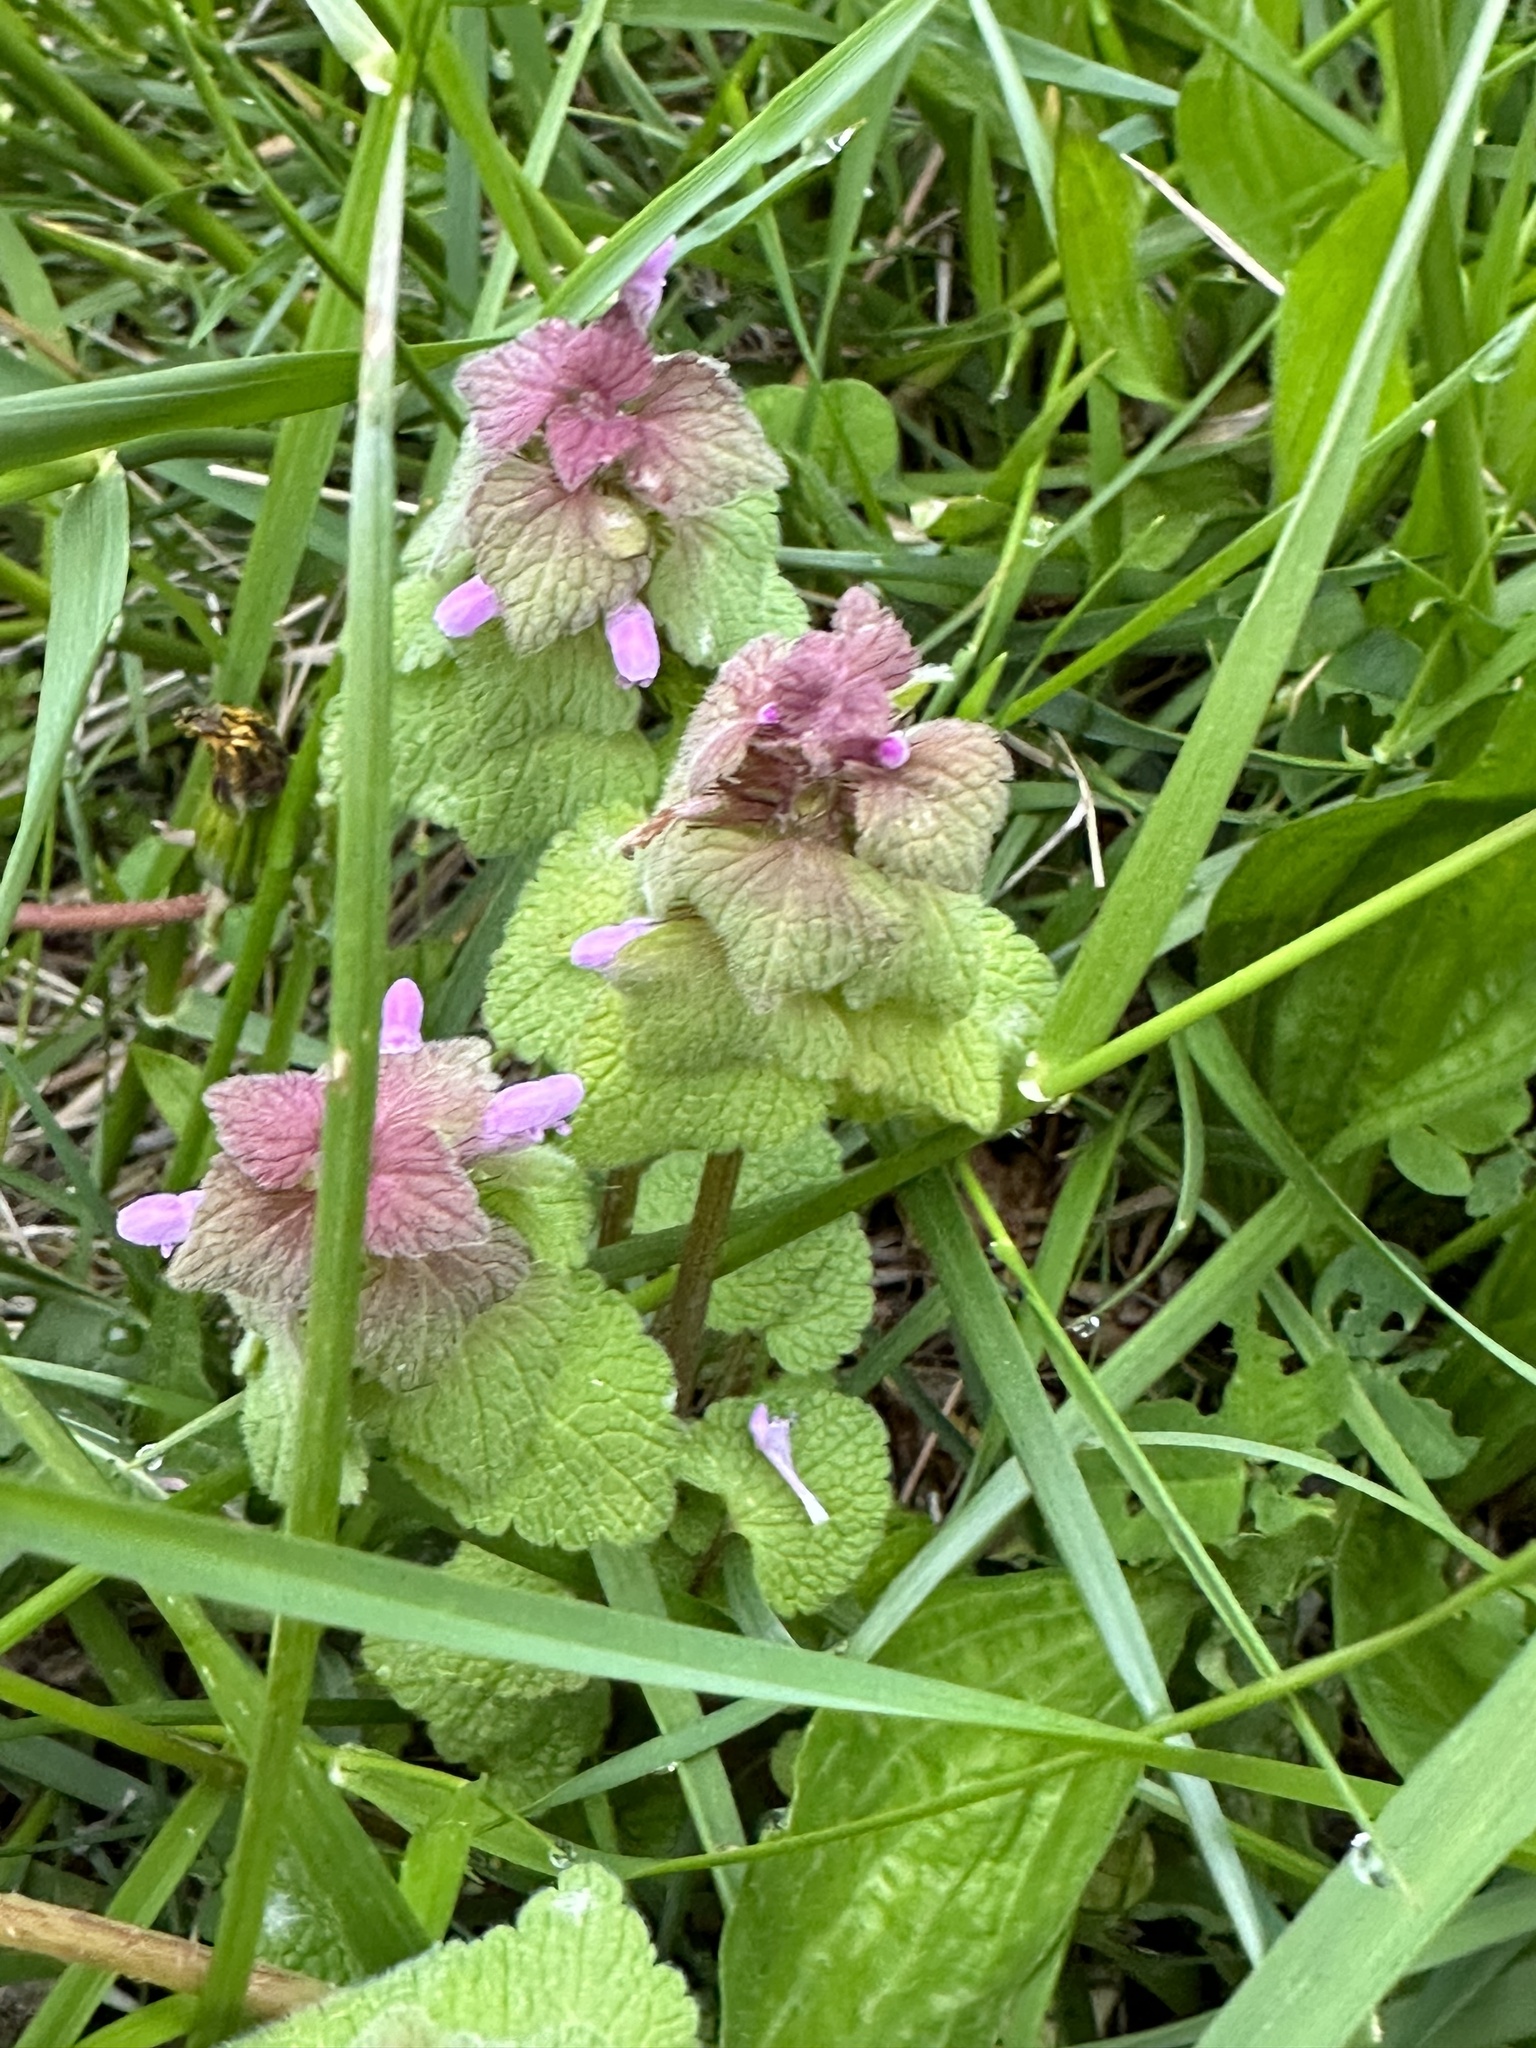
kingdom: Plantae
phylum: Tracheophyta
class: Magnoliopsida
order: Lamiales
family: Lamiaceae
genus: Lamium
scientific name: Lamium purpureum
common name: Red dead-nettle
